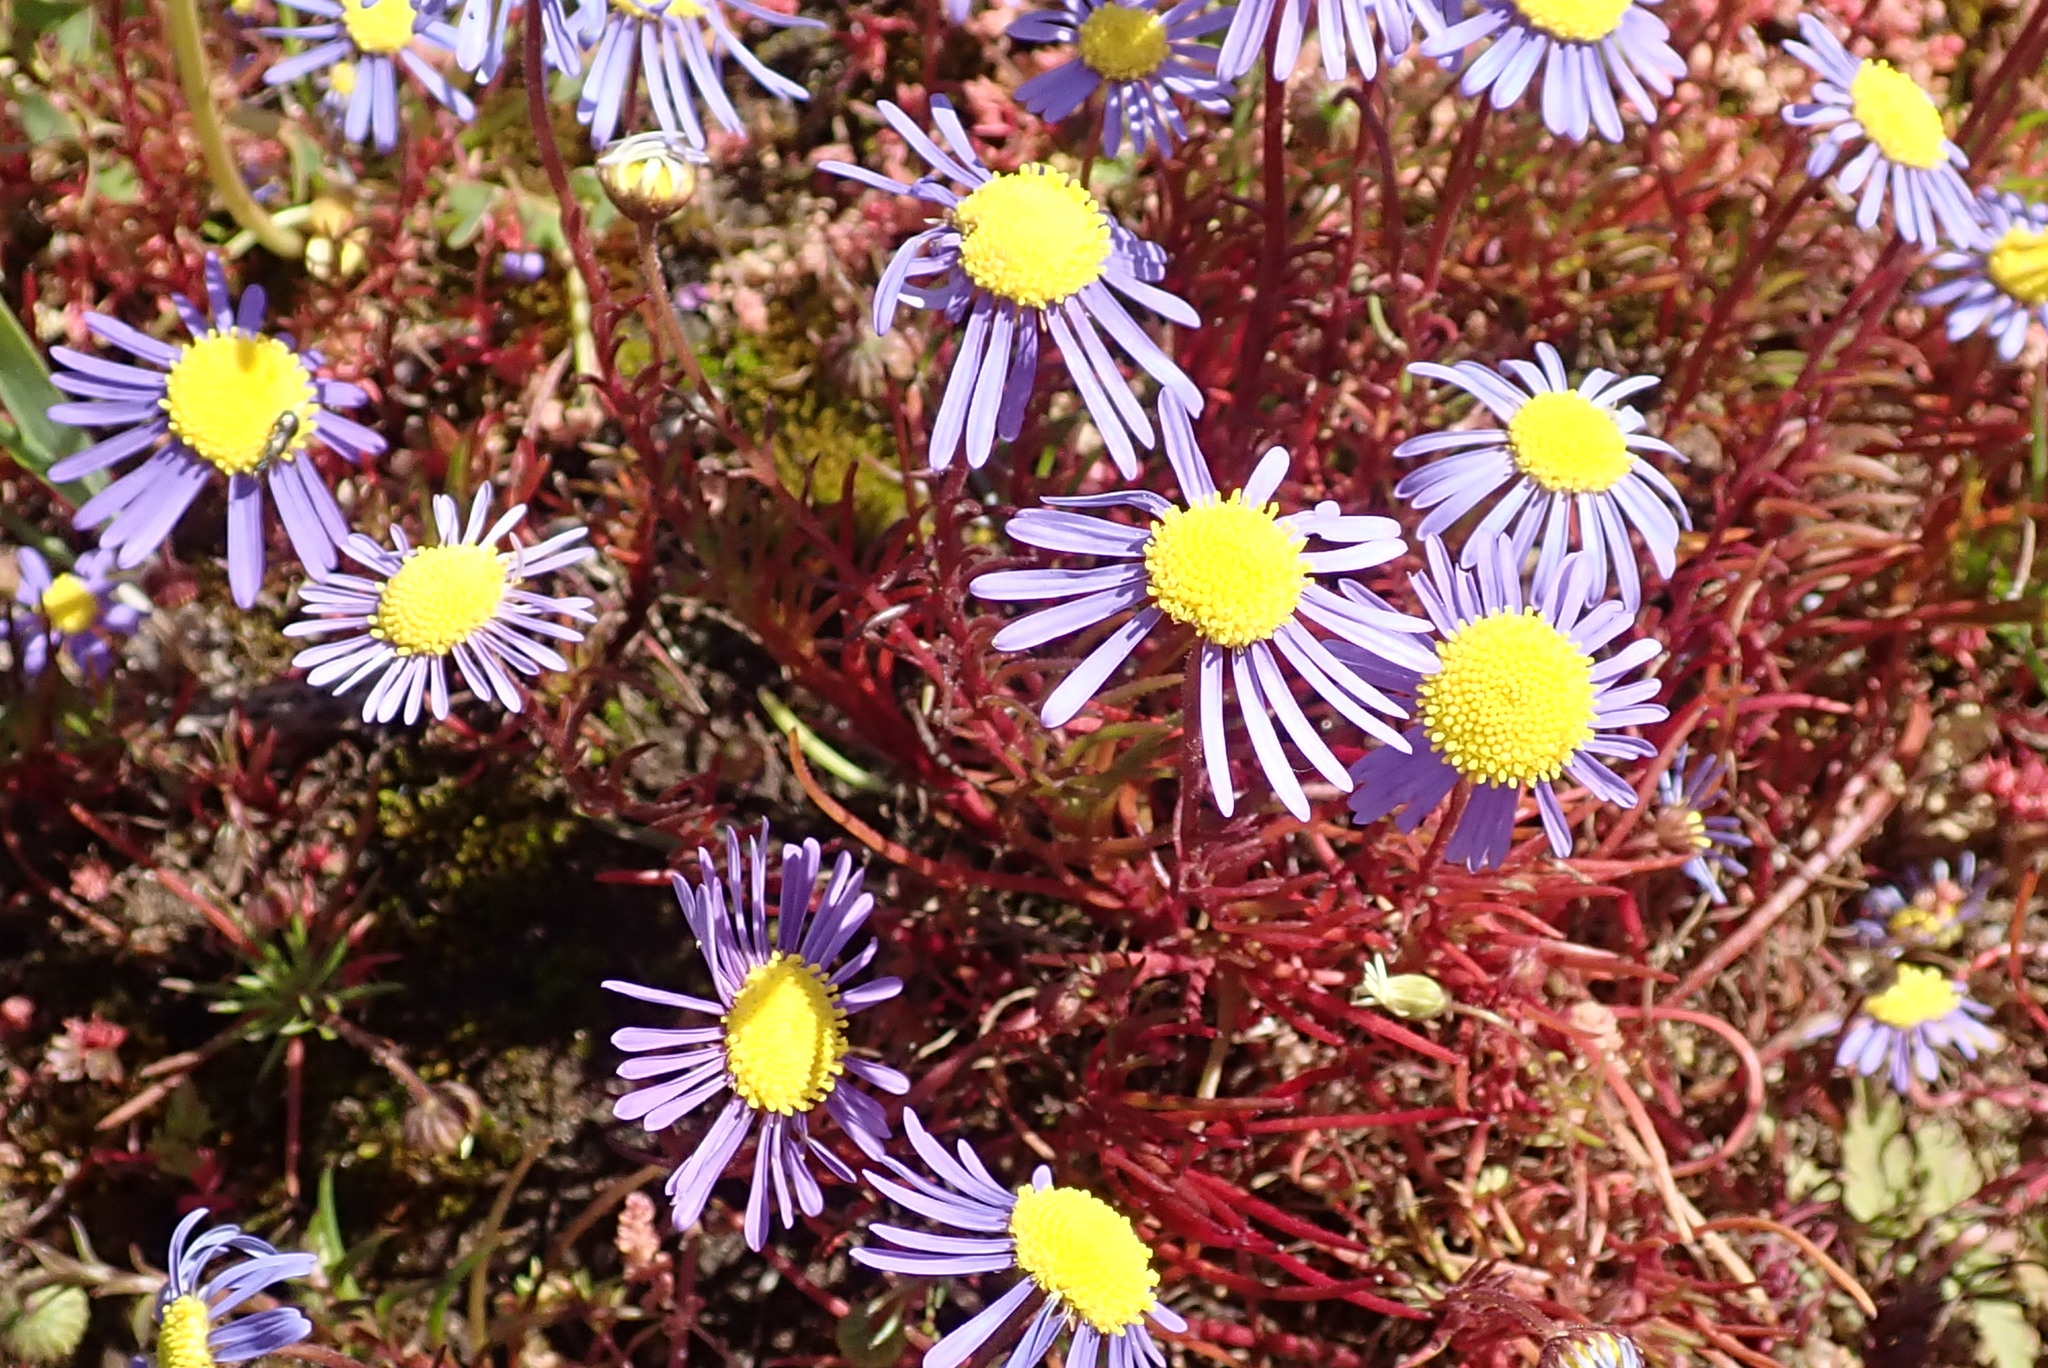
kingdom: Plantae
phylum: Tracheophyta
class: Magnoliopsida
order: Asterales
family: Asteraceae
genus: Felicia
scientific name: Felicia tenella
